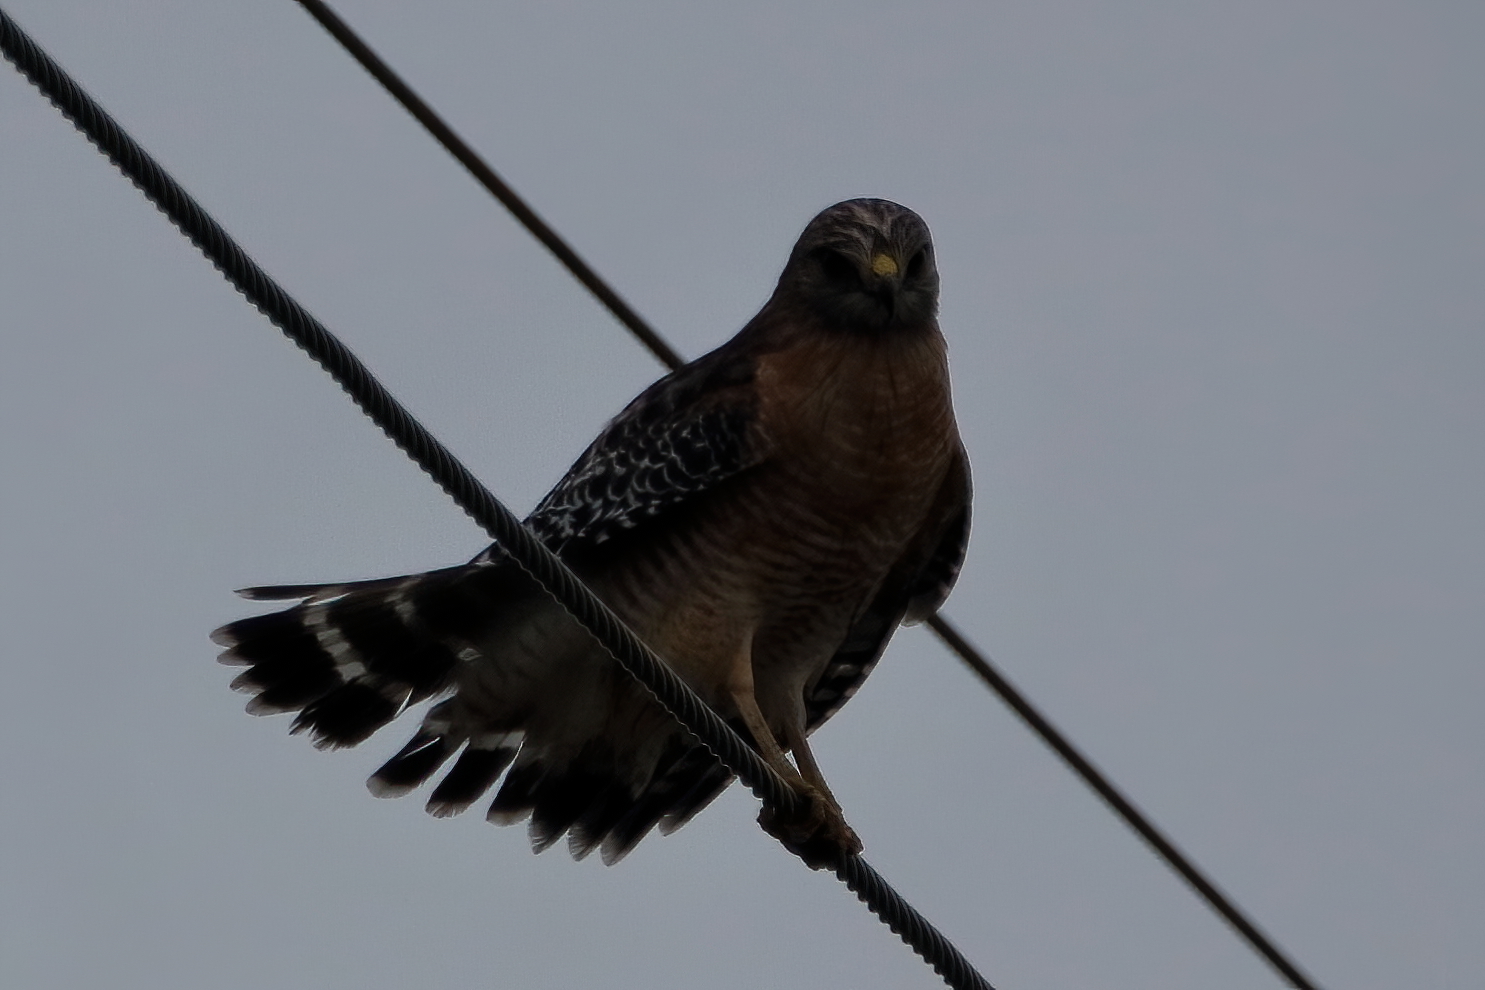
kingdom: Animalia
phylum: Chordata
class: Aves
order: Accipitriformes
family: Accipitridae
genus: Buteo
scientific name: Buteo lineatus
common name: Red-shouldered hawk
